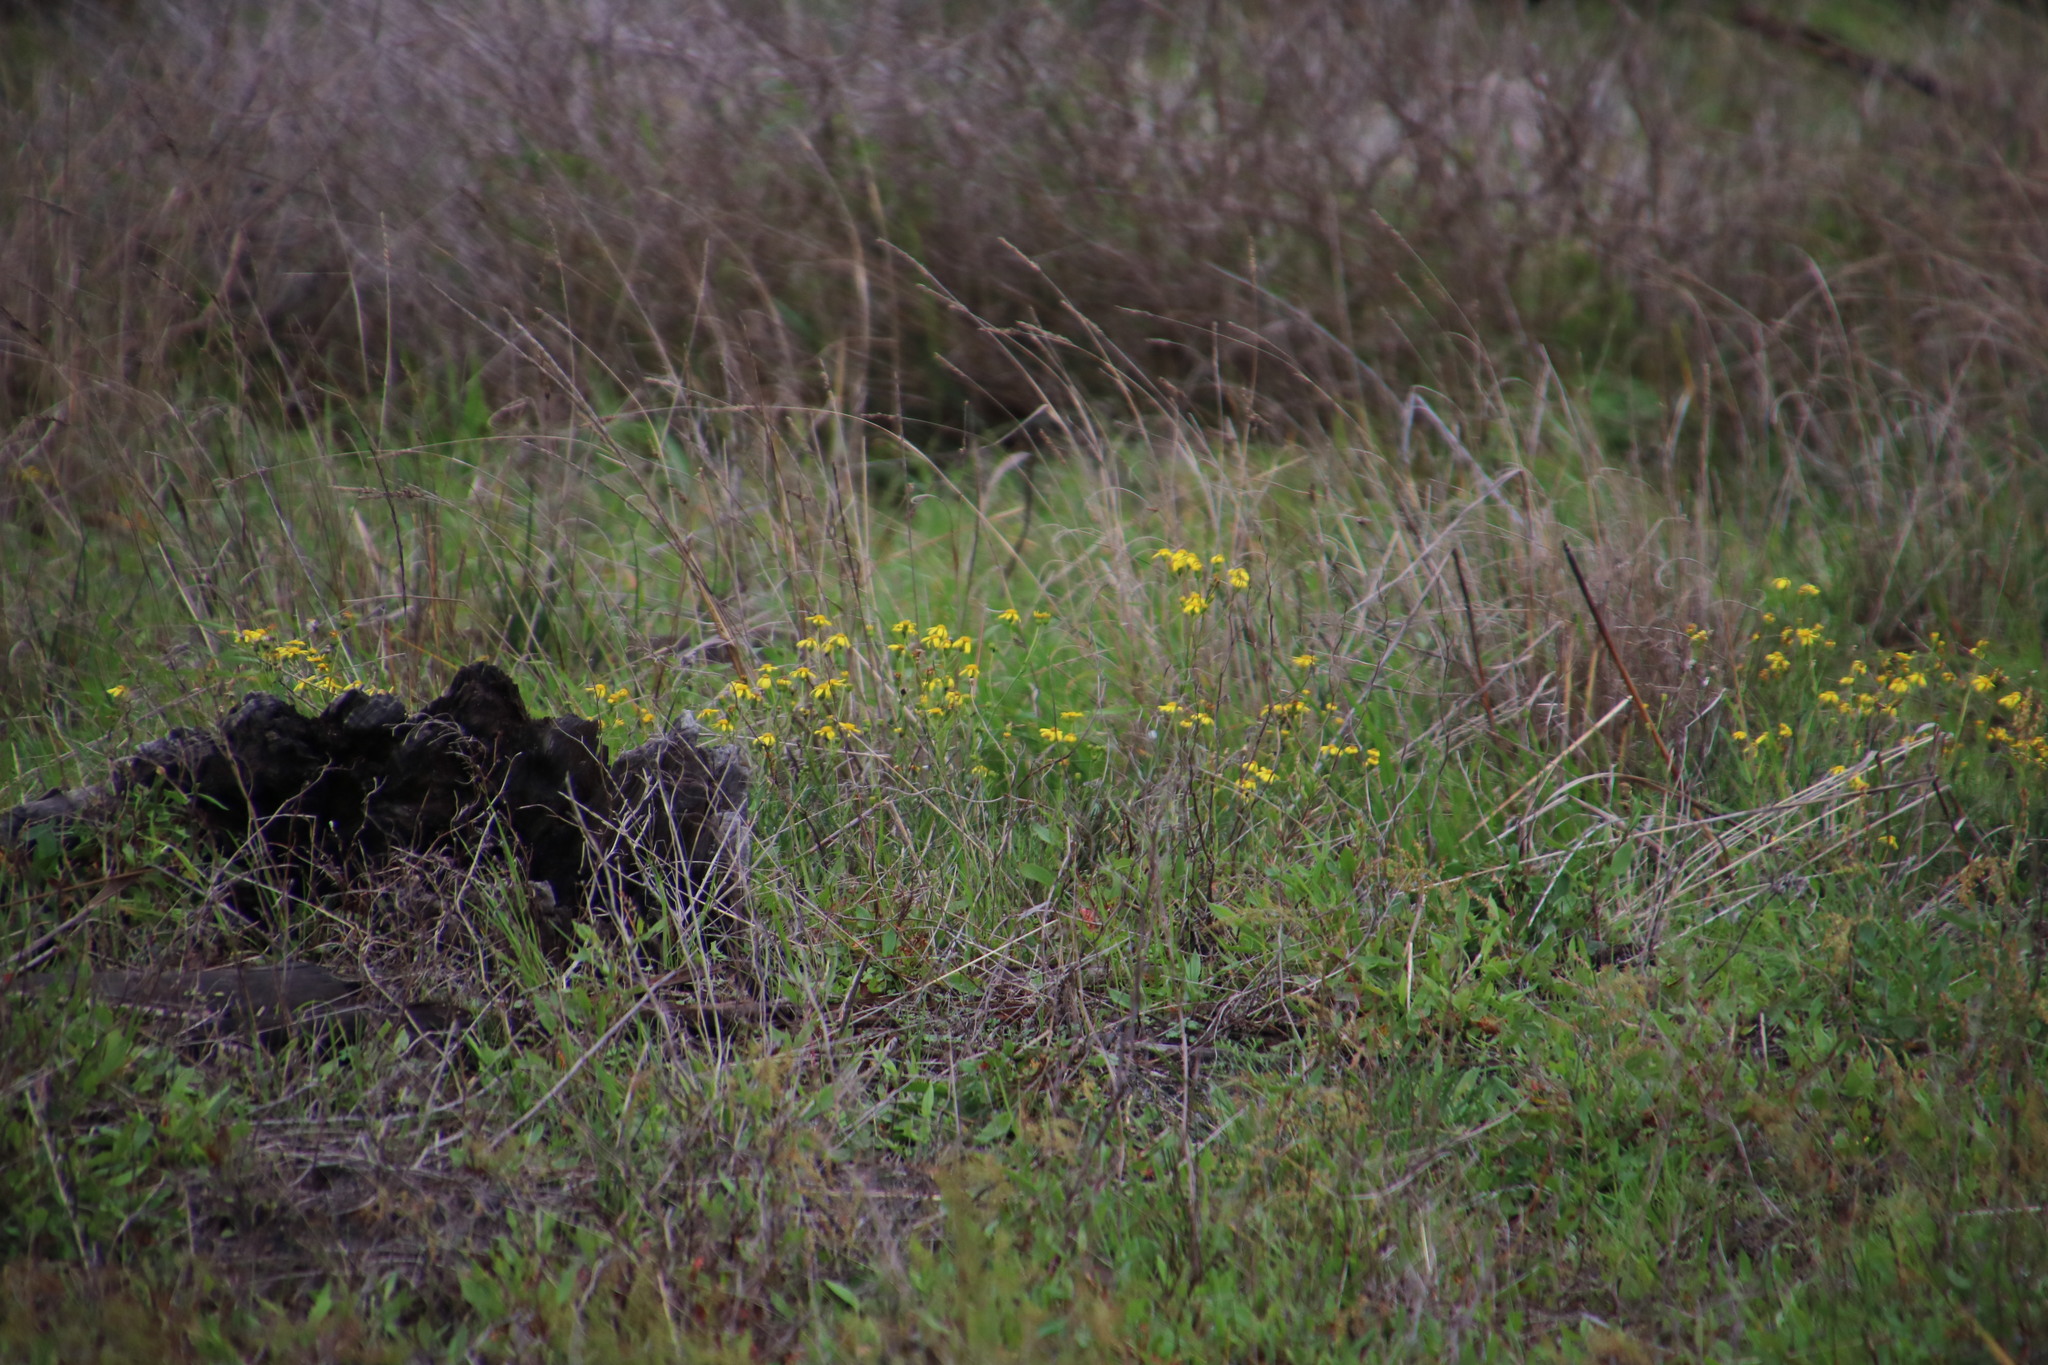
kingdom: Plantae
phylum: Tracheophyta
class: Magnoliopsida
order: Asterales
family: Asteraceae
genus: Senecio
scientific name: Senecio burchellii
